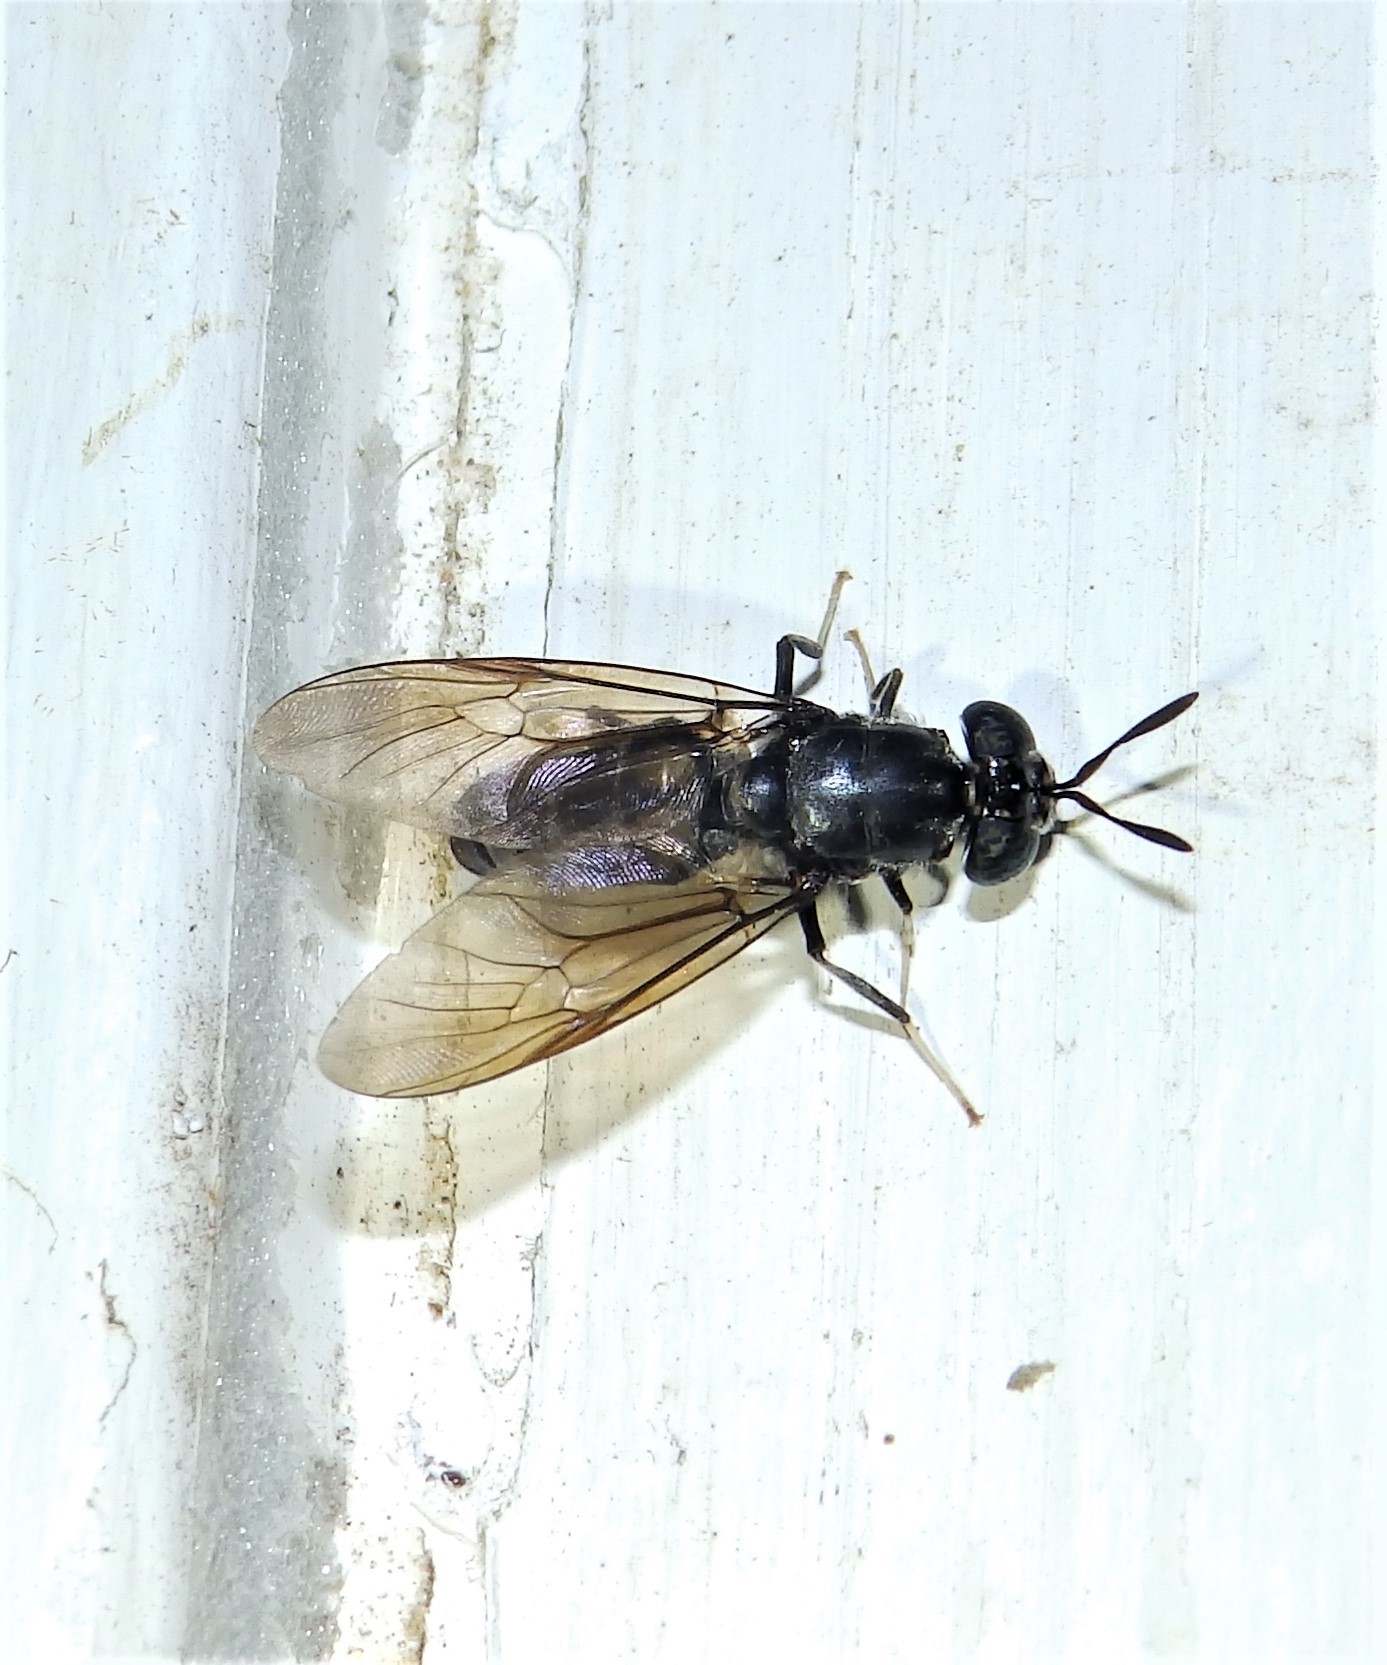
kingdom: Animalia
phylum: Arthropoda
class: Insecta
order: Diptera
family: Stratiomyidae
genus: Hermetia
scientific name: Hermetia illucens
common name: Black soldier fly
